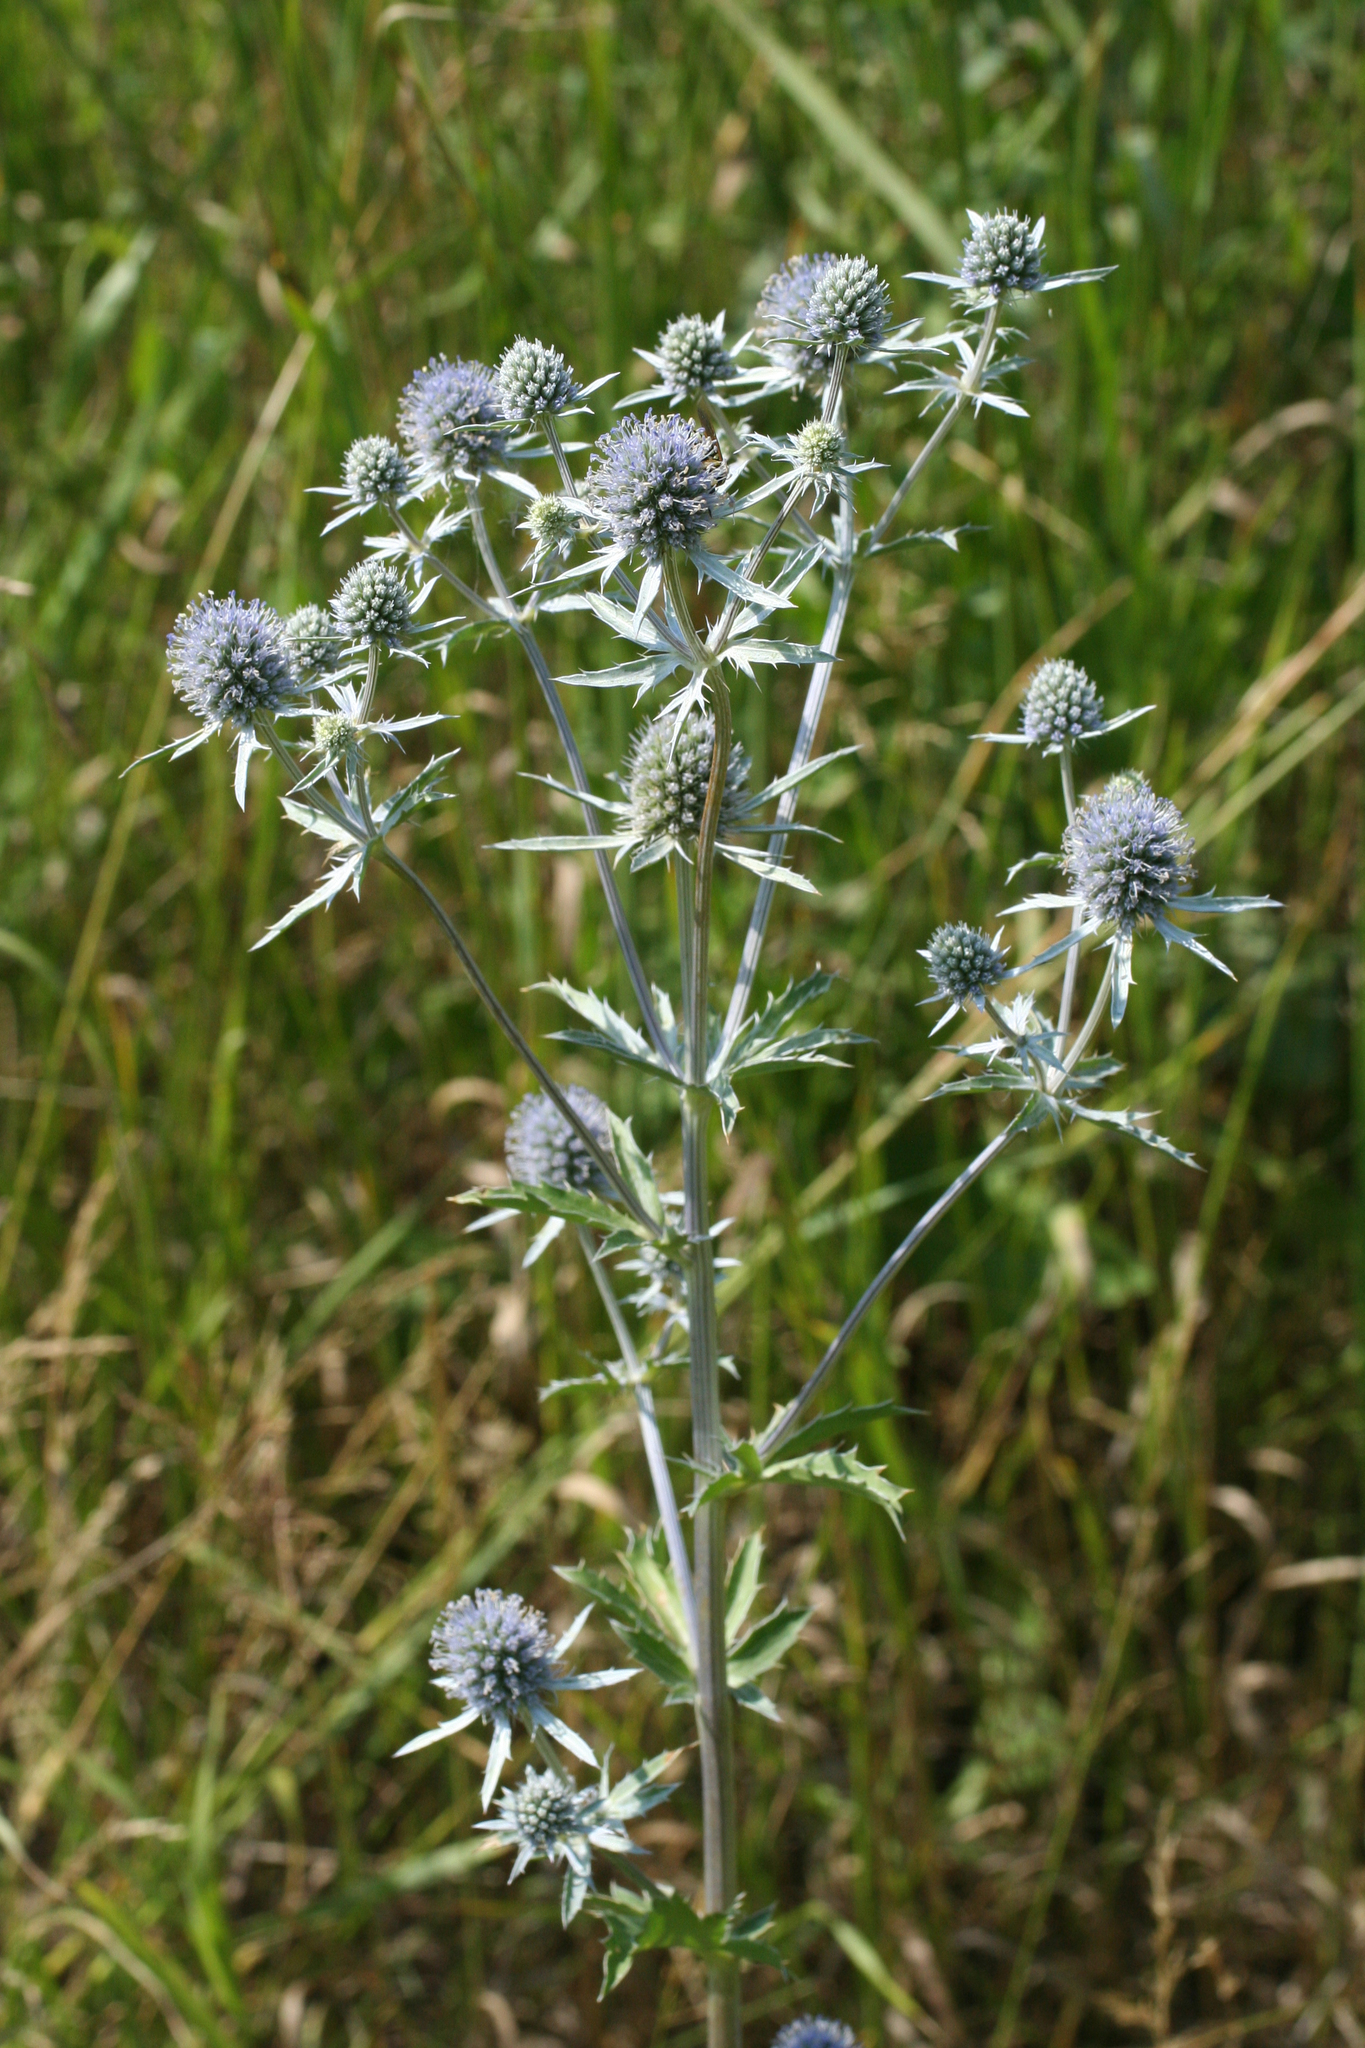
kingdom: Plantae
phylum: Tracheophyta
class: Magnoliopsida
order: Apiales
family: Apiaceae
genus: Eryngium
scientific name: Eryngium planum
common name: Blue eryngo
